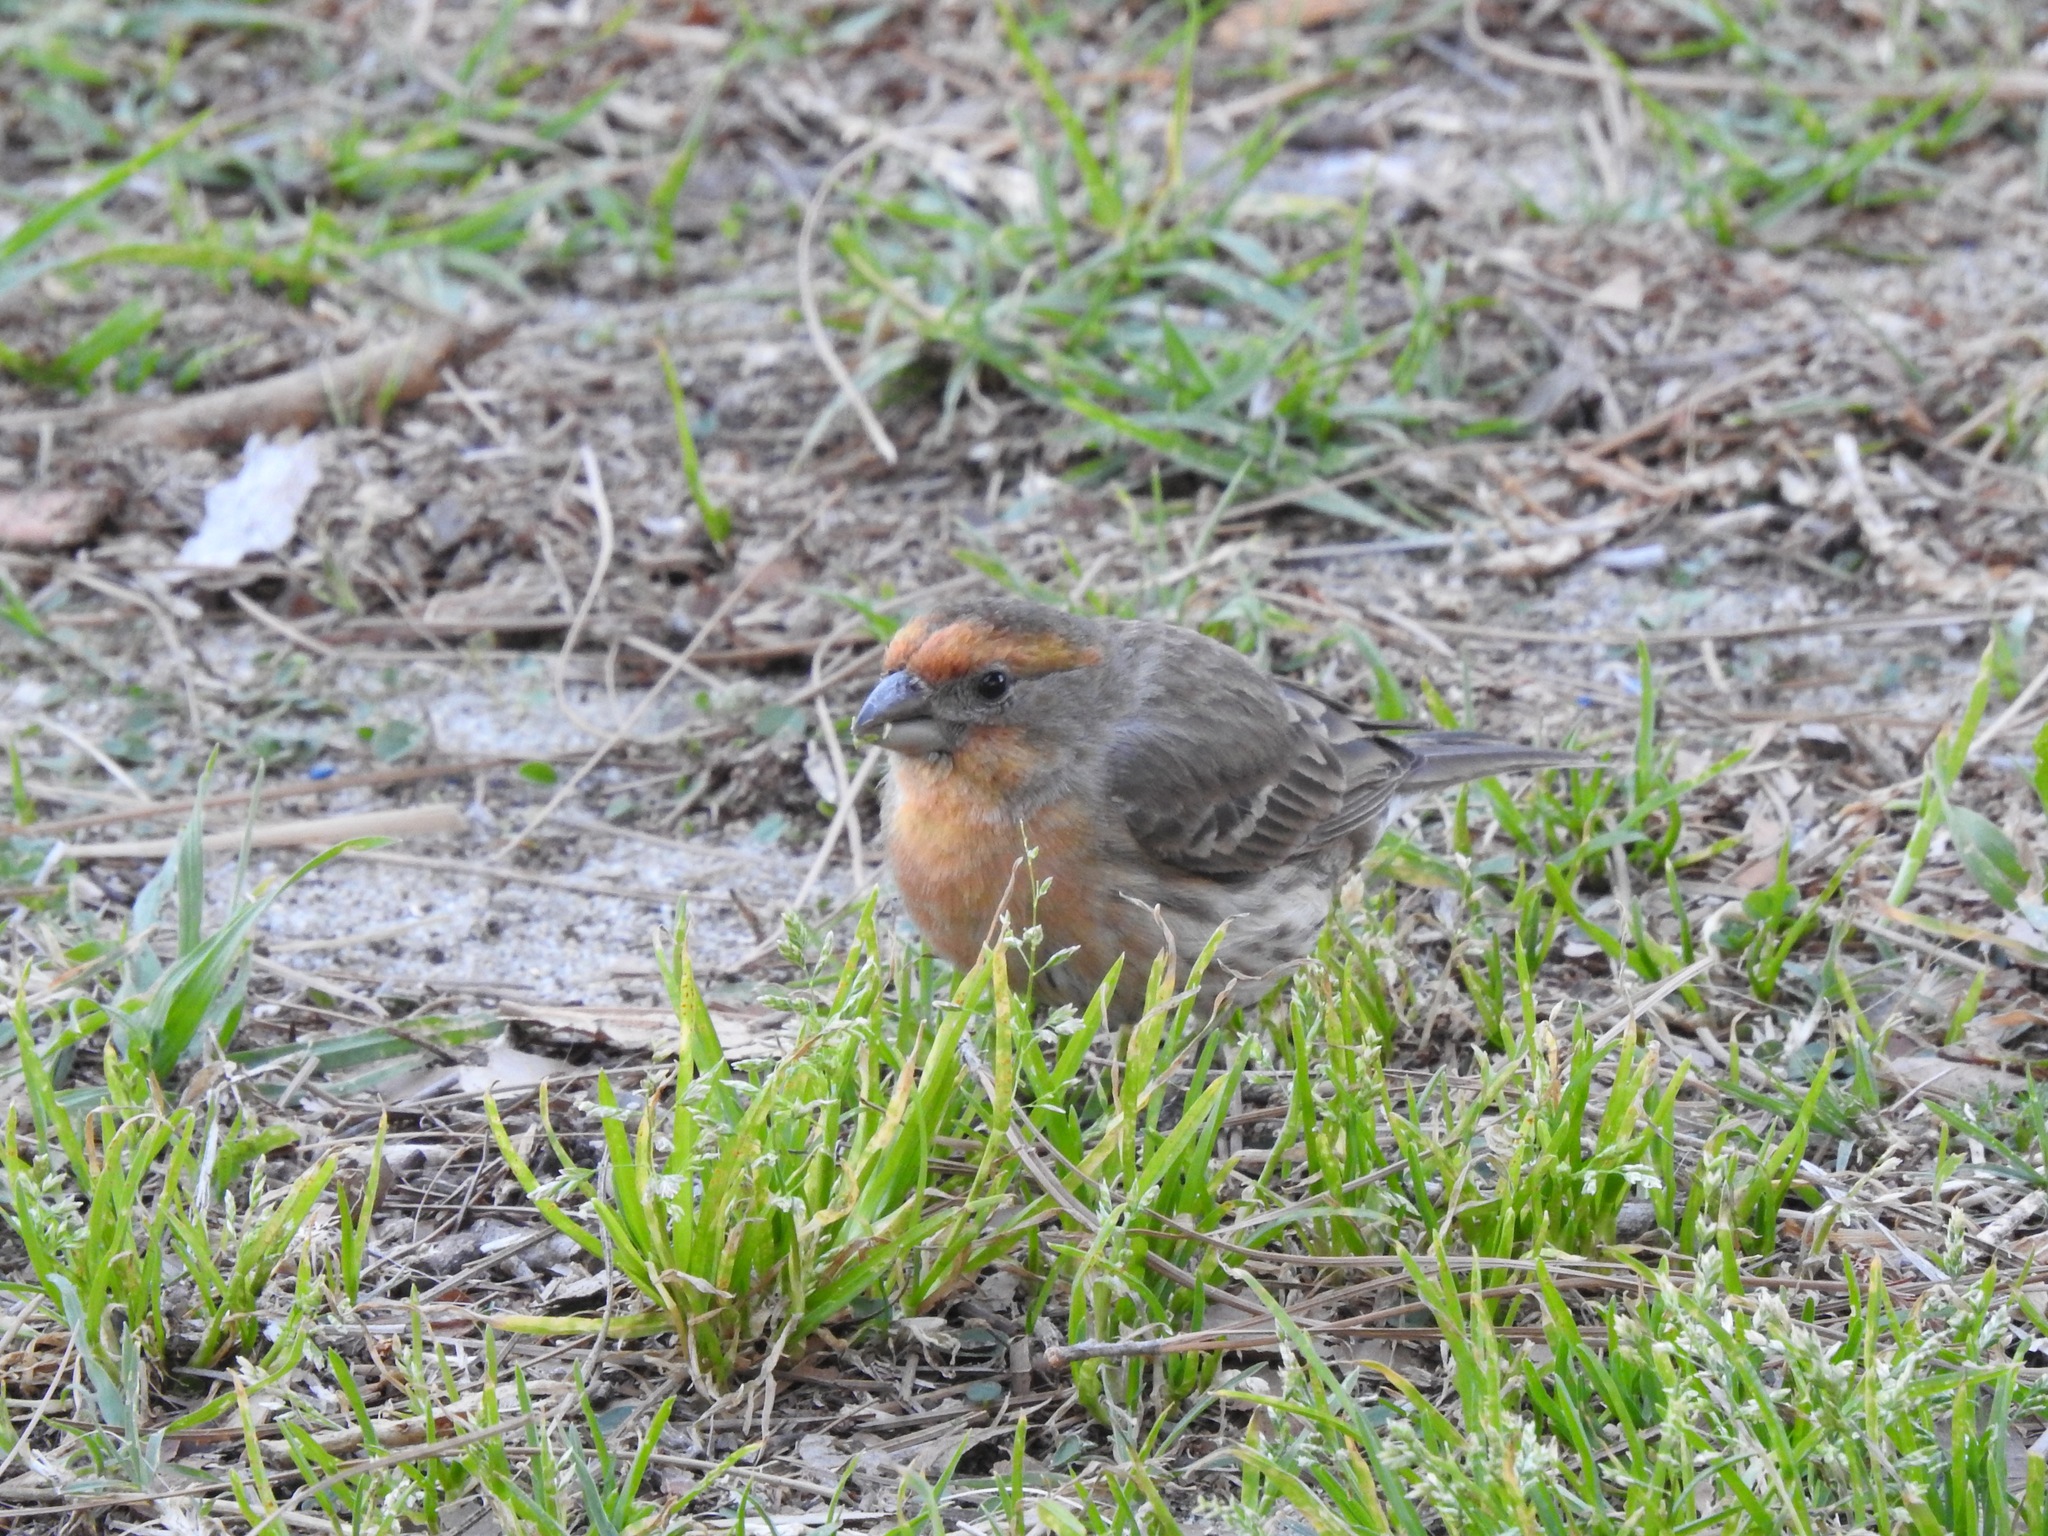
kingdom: Animalia
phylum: Chordata
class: Aves
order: Passeriformes
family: Fringillidae
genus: Haemorhous
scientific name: Haemorhous mexicanus
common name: House finch
